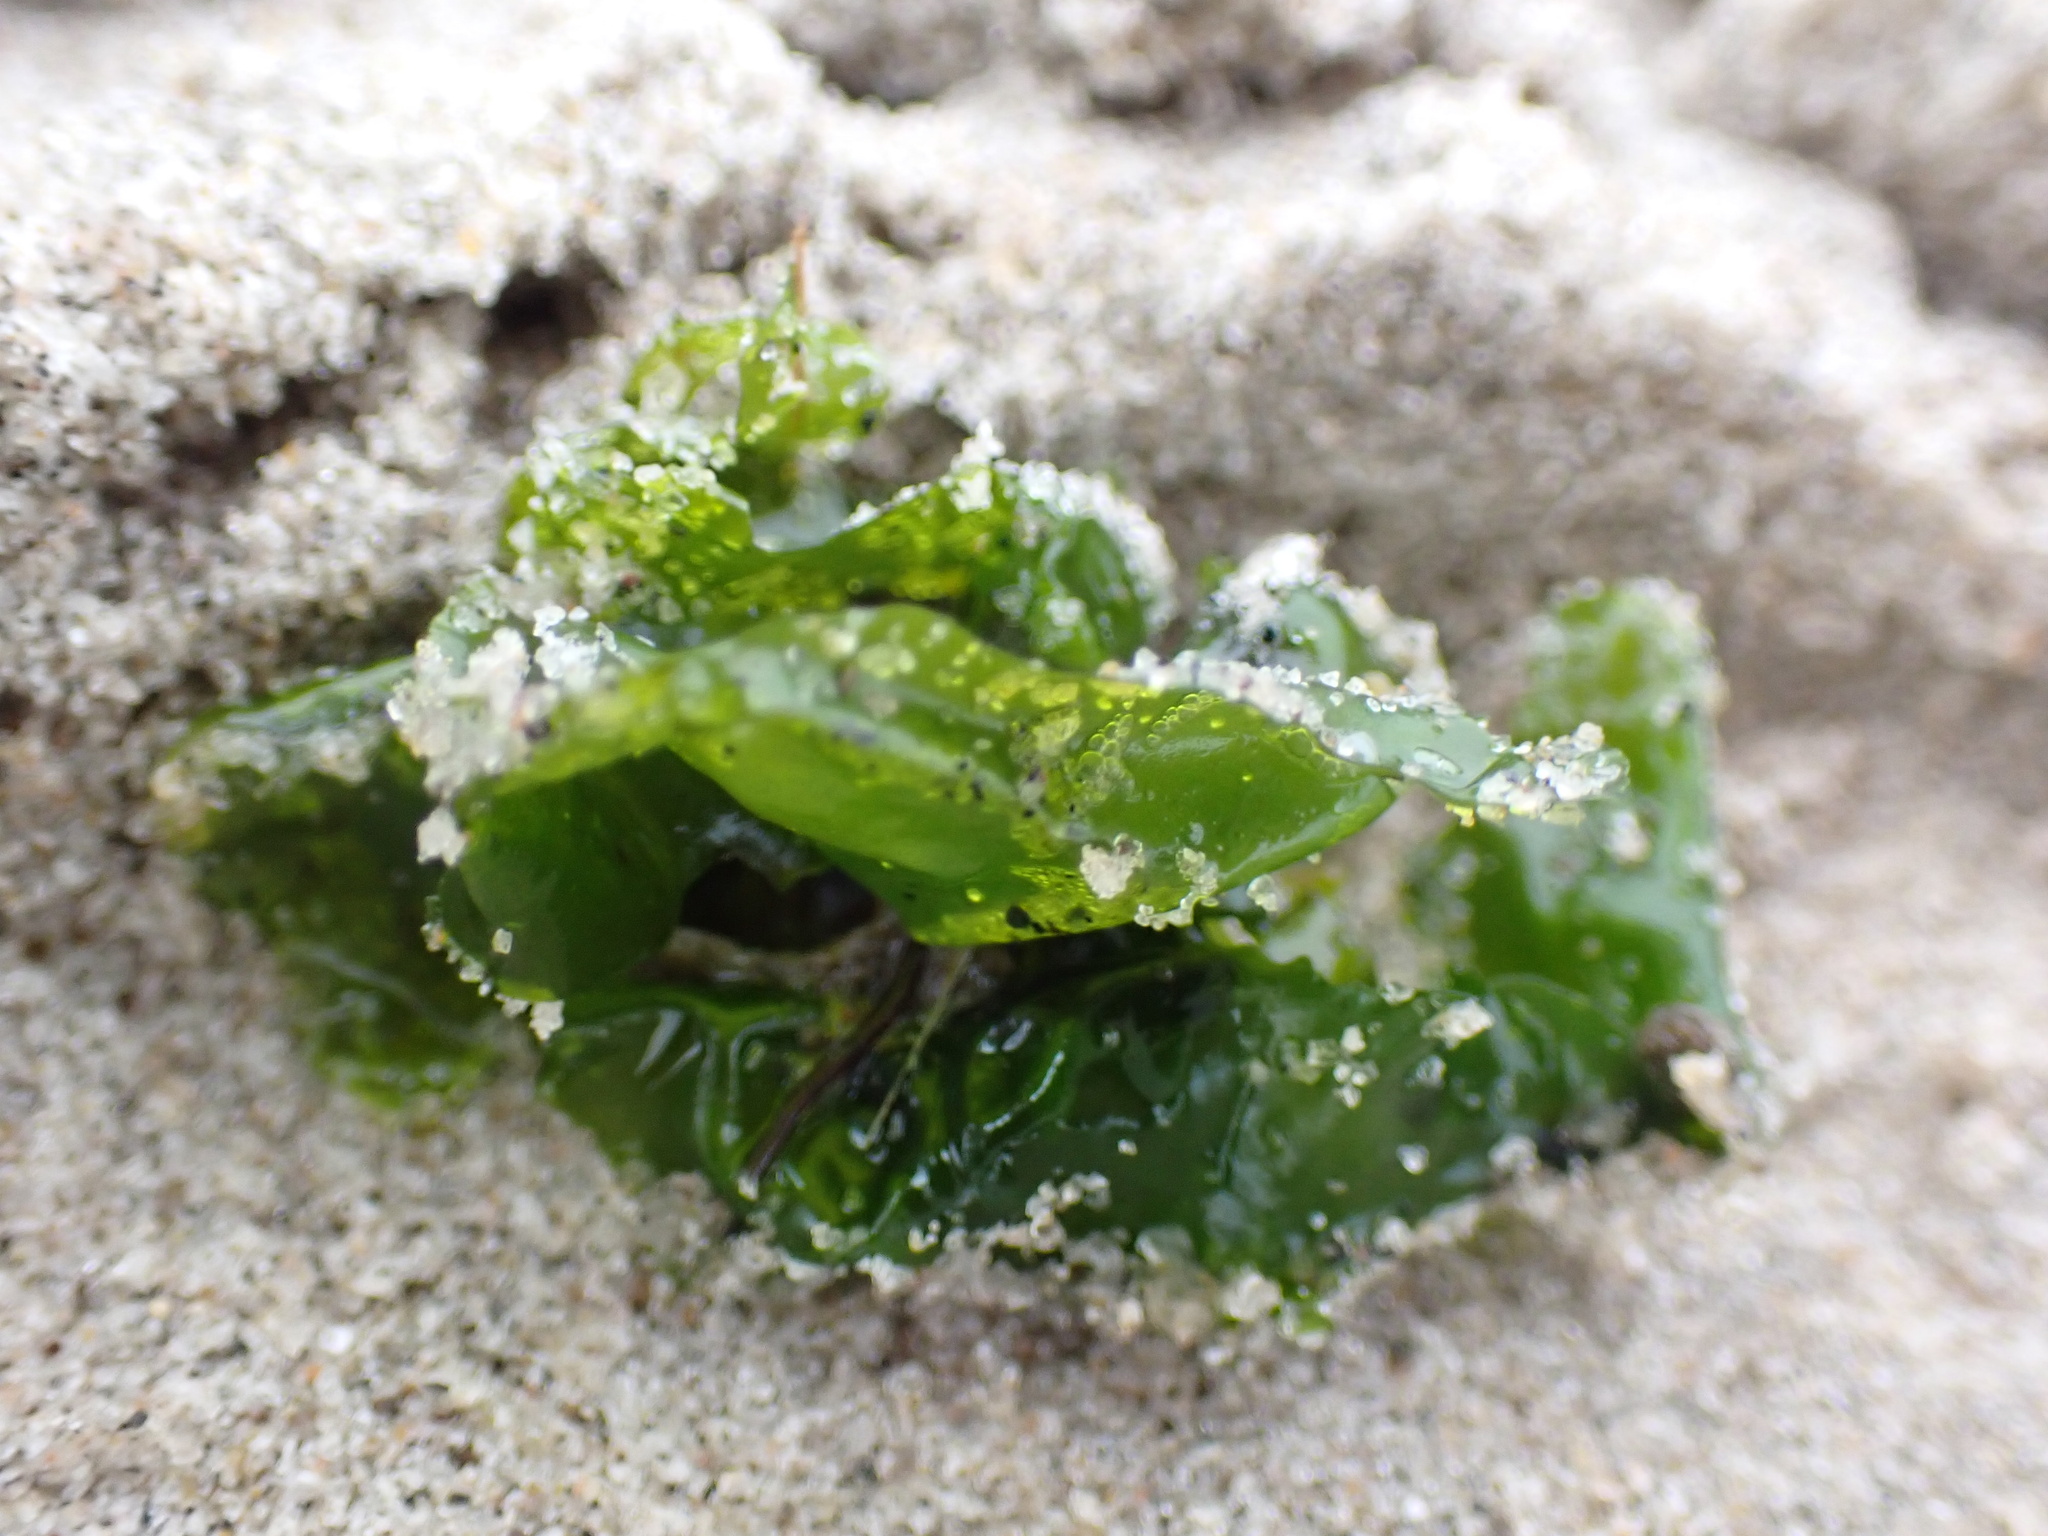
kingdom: Plantae
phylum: Chlorophyta
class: Ulvophyceae
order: Ulvales
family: Ulvaceae
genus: Ulva
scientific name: Ulva lactuca
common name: Sea lettuce
